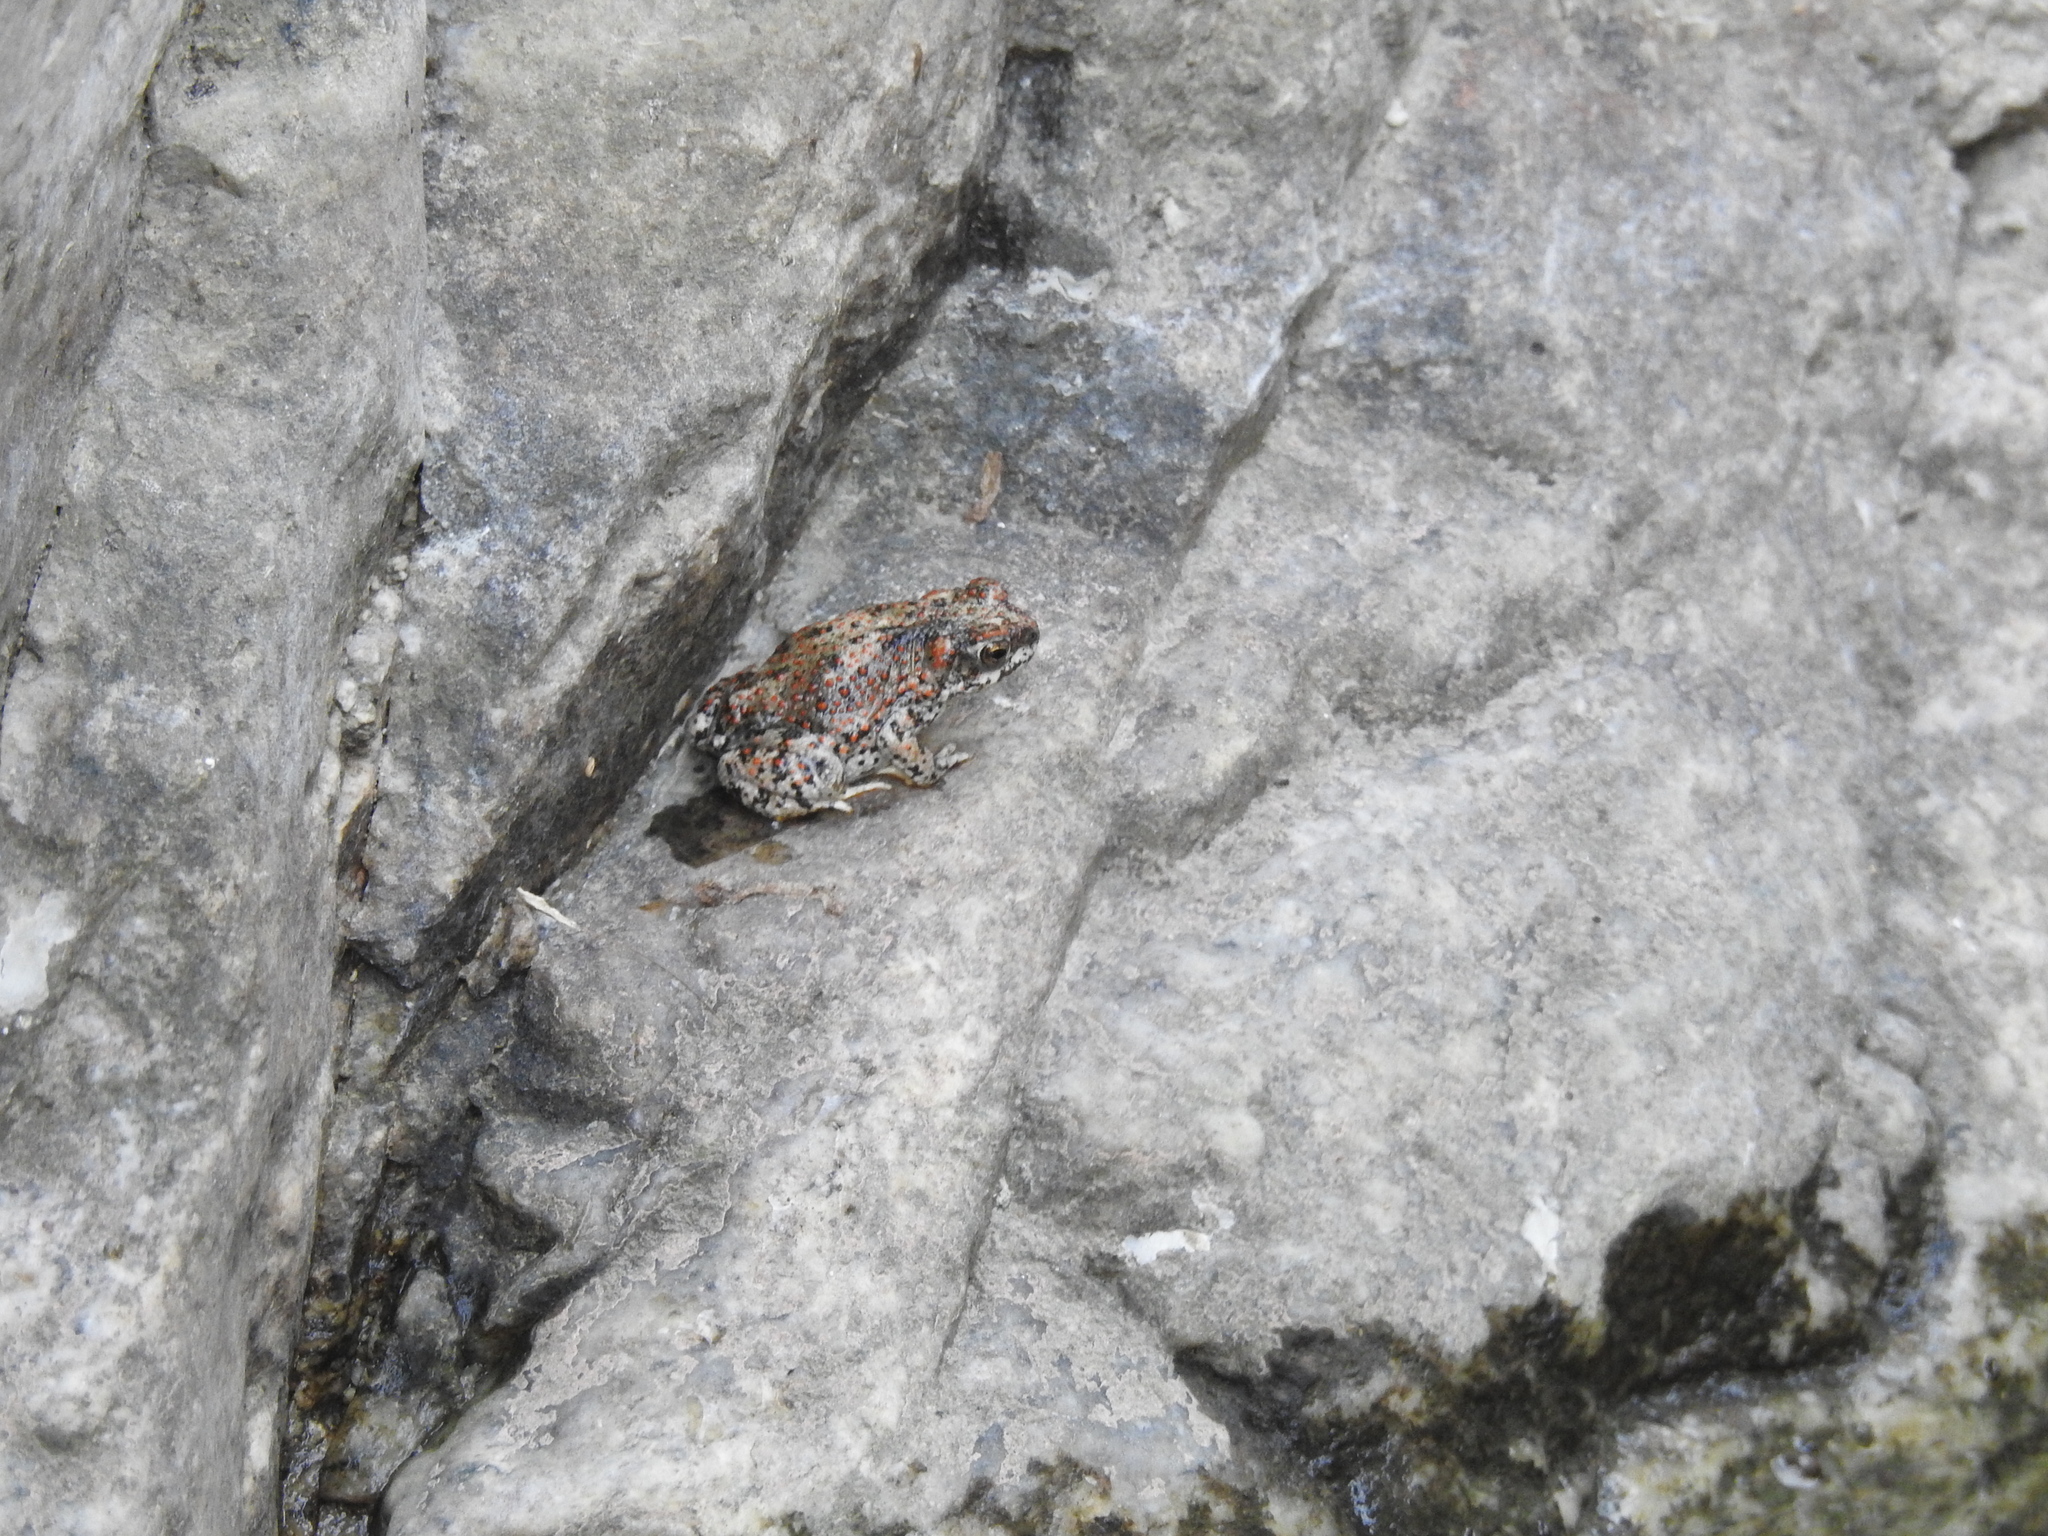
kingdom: Animalia
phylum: Chordata
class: Amphibia
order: Anura
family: Bufonidae
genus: Anaxyrus
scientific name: Anaxyrus punctatus
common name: Red-spotted toad
